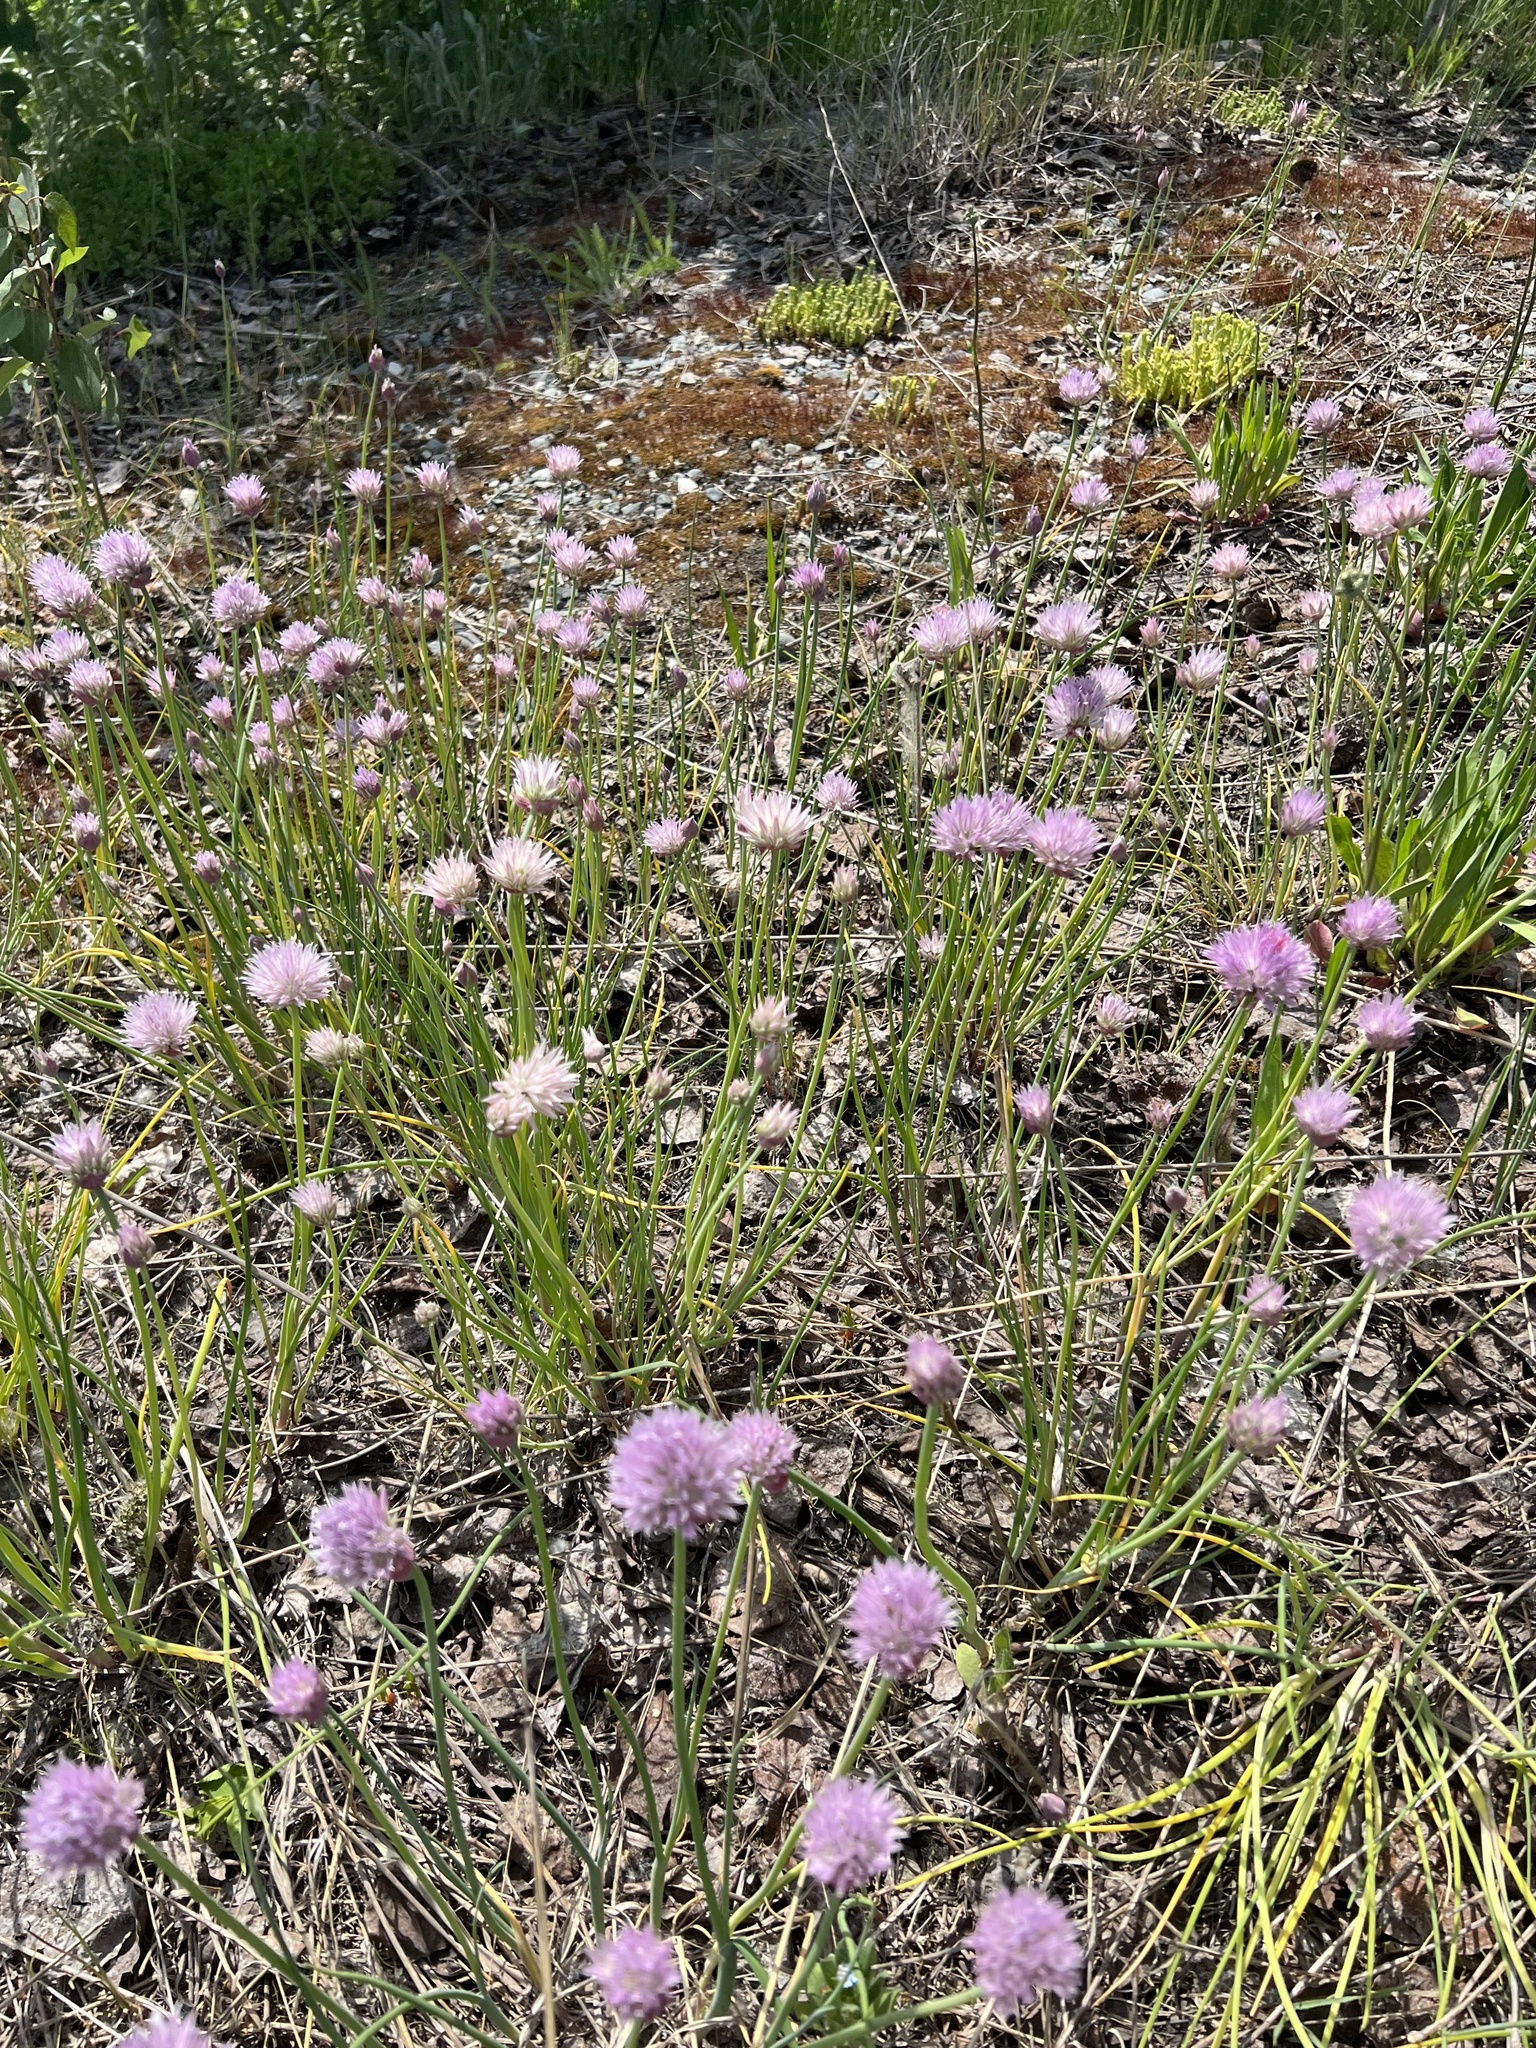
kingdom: Plantae
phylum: Tracheophyta
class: Liliopsida
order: Asparagales
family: Amaryllidaceae
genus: Allium
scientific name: Allium schoenoprasum
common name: Chives
